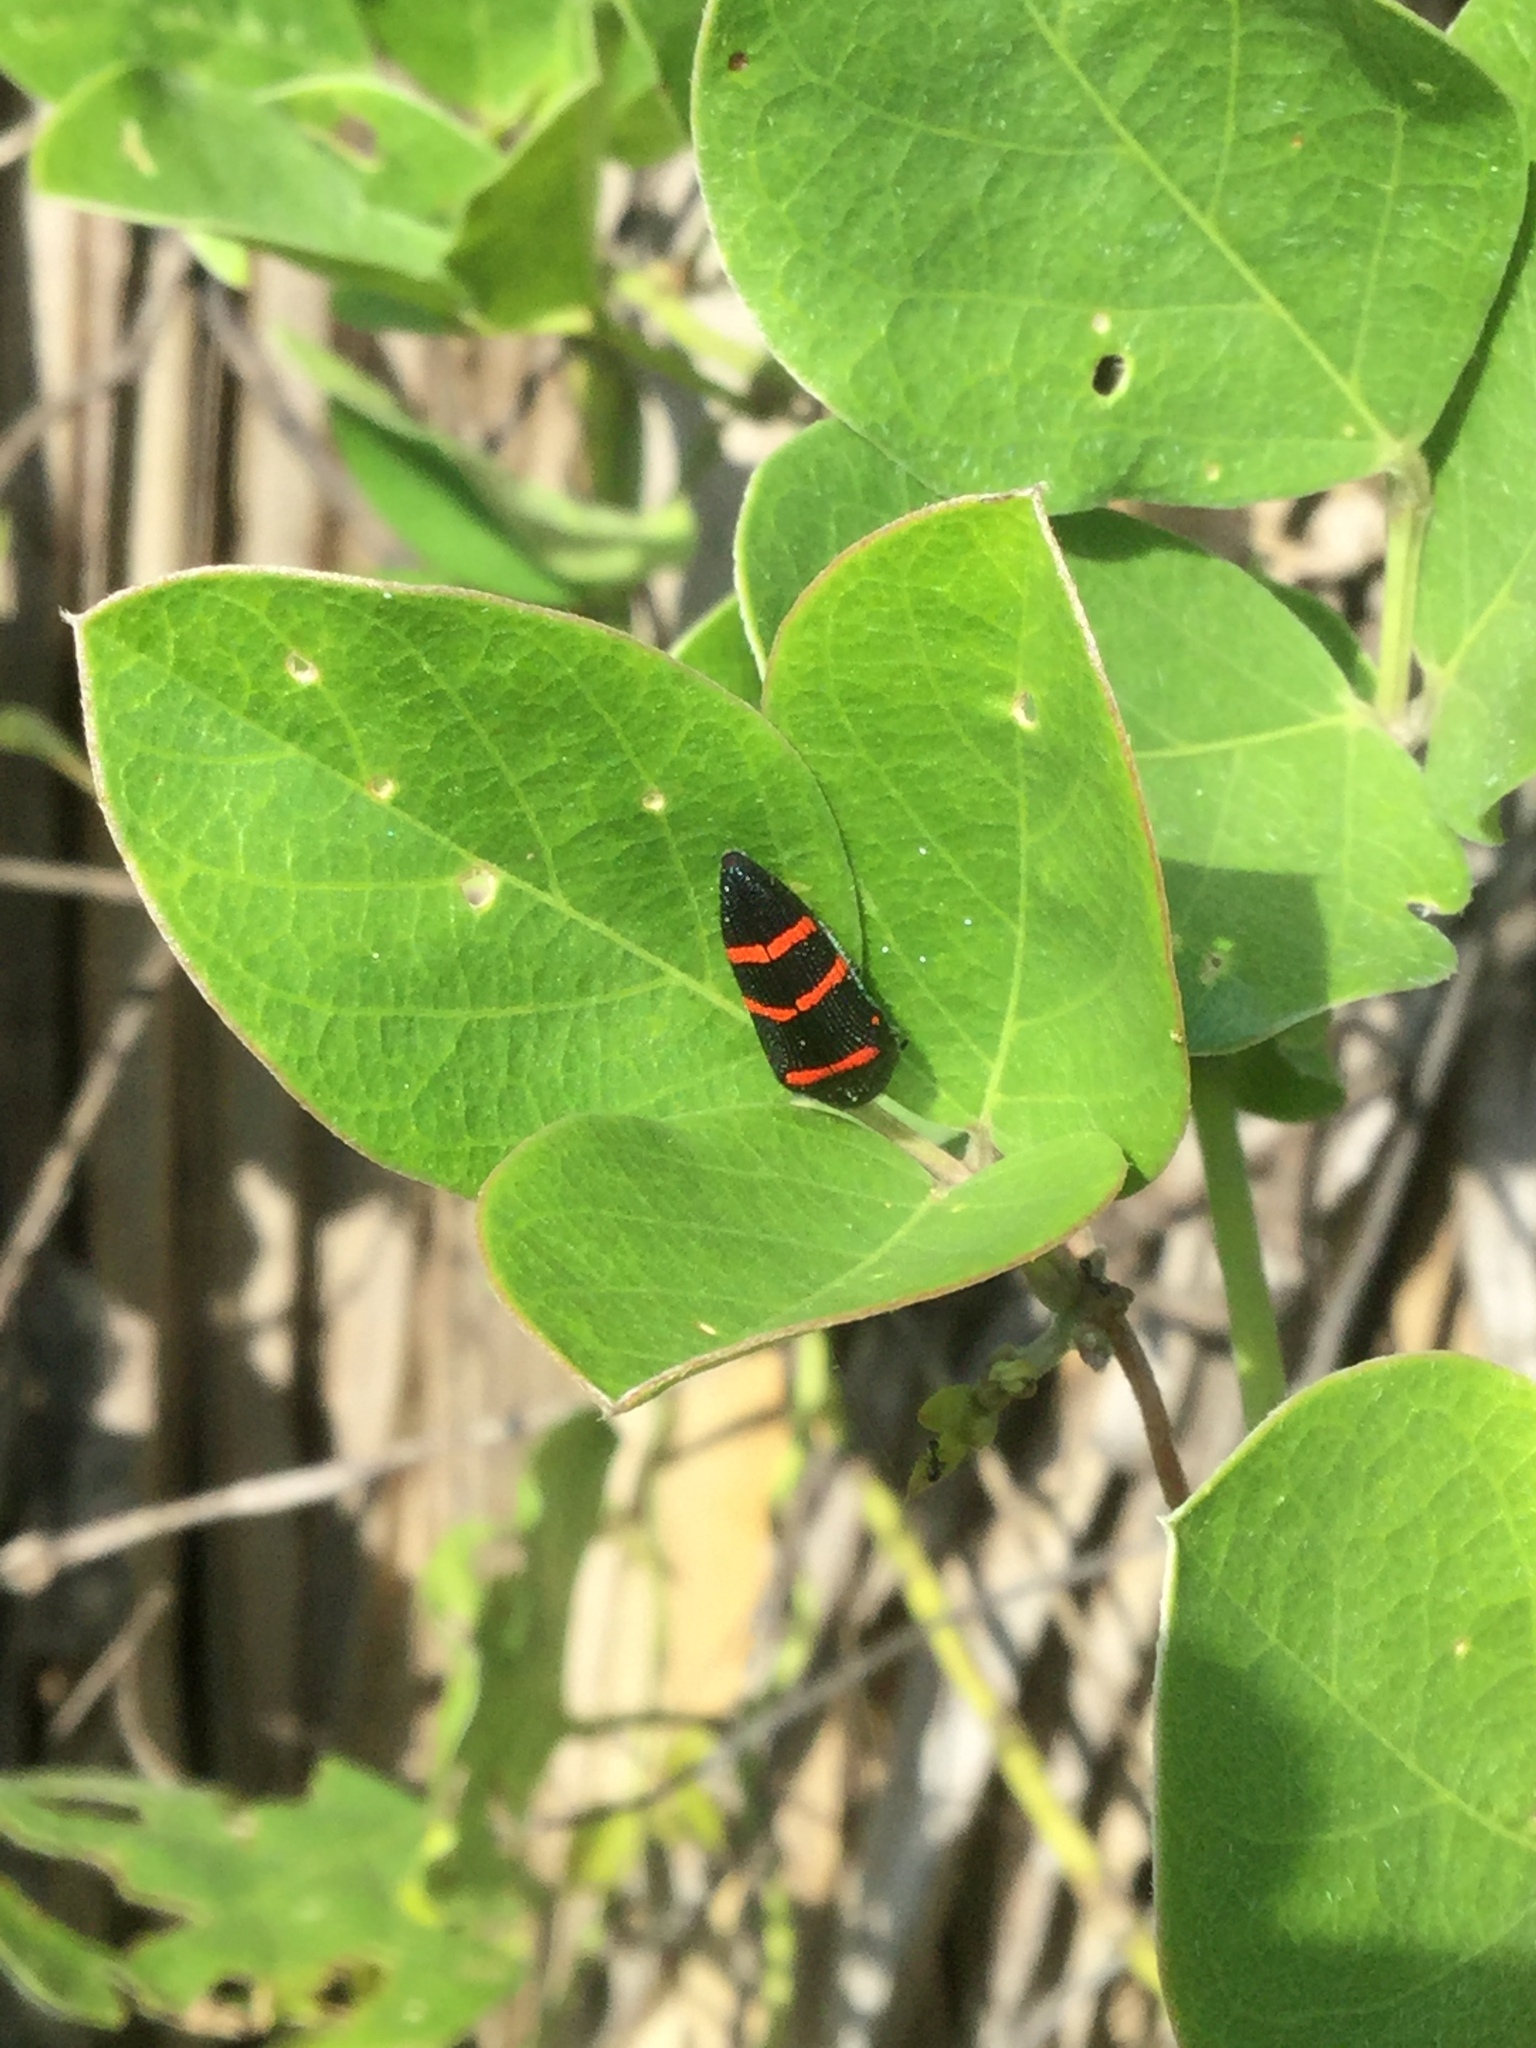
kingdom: Animalia
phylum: Arthropoda
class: Insecta
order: Coleoptera
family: Buprestidae
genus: Acmaeodera
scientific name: Acmaeodera trizonalis
